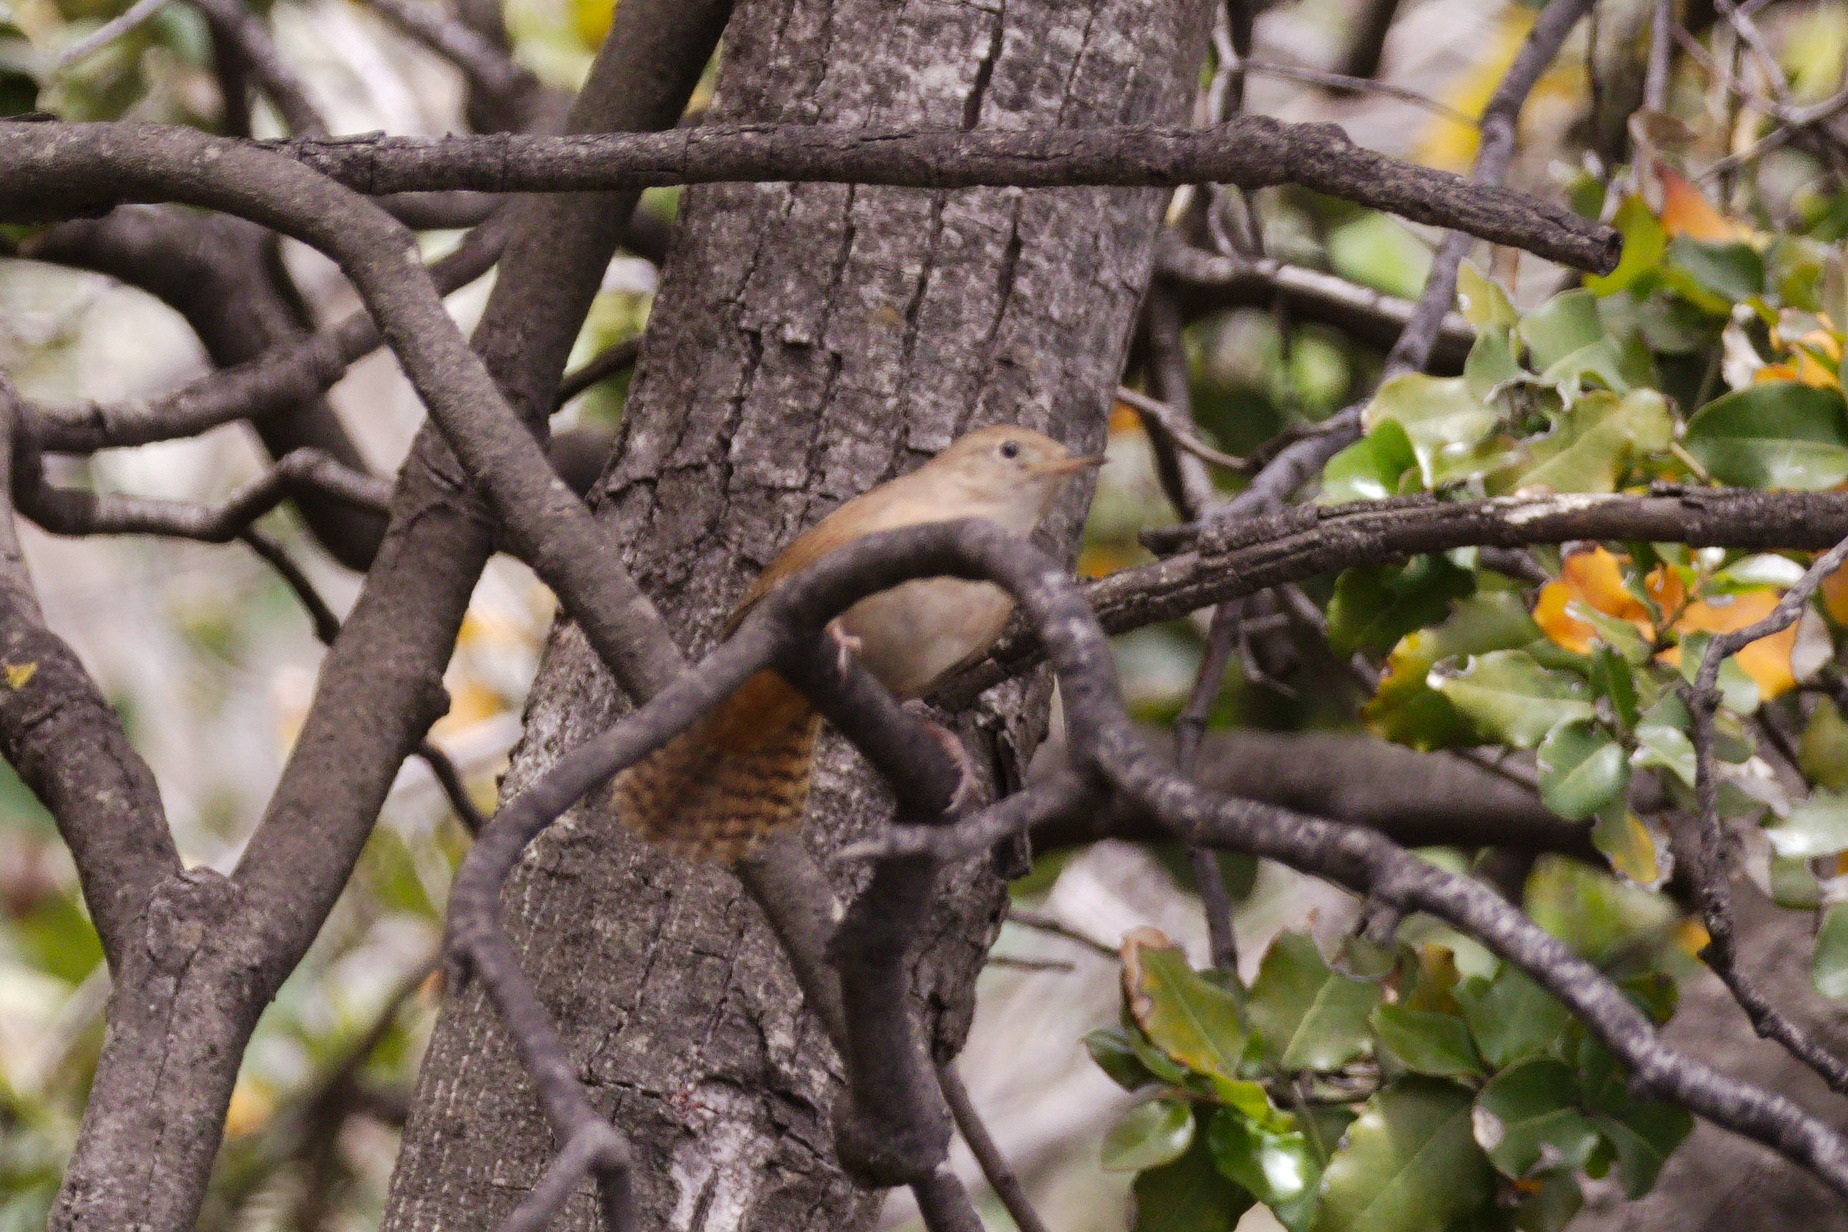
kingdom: Animalia
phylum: Chordata
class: Aves
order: Passeriformes
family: Troglodytidae
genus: Troglodytes
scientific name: Troglodytes aedon
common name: House wren
